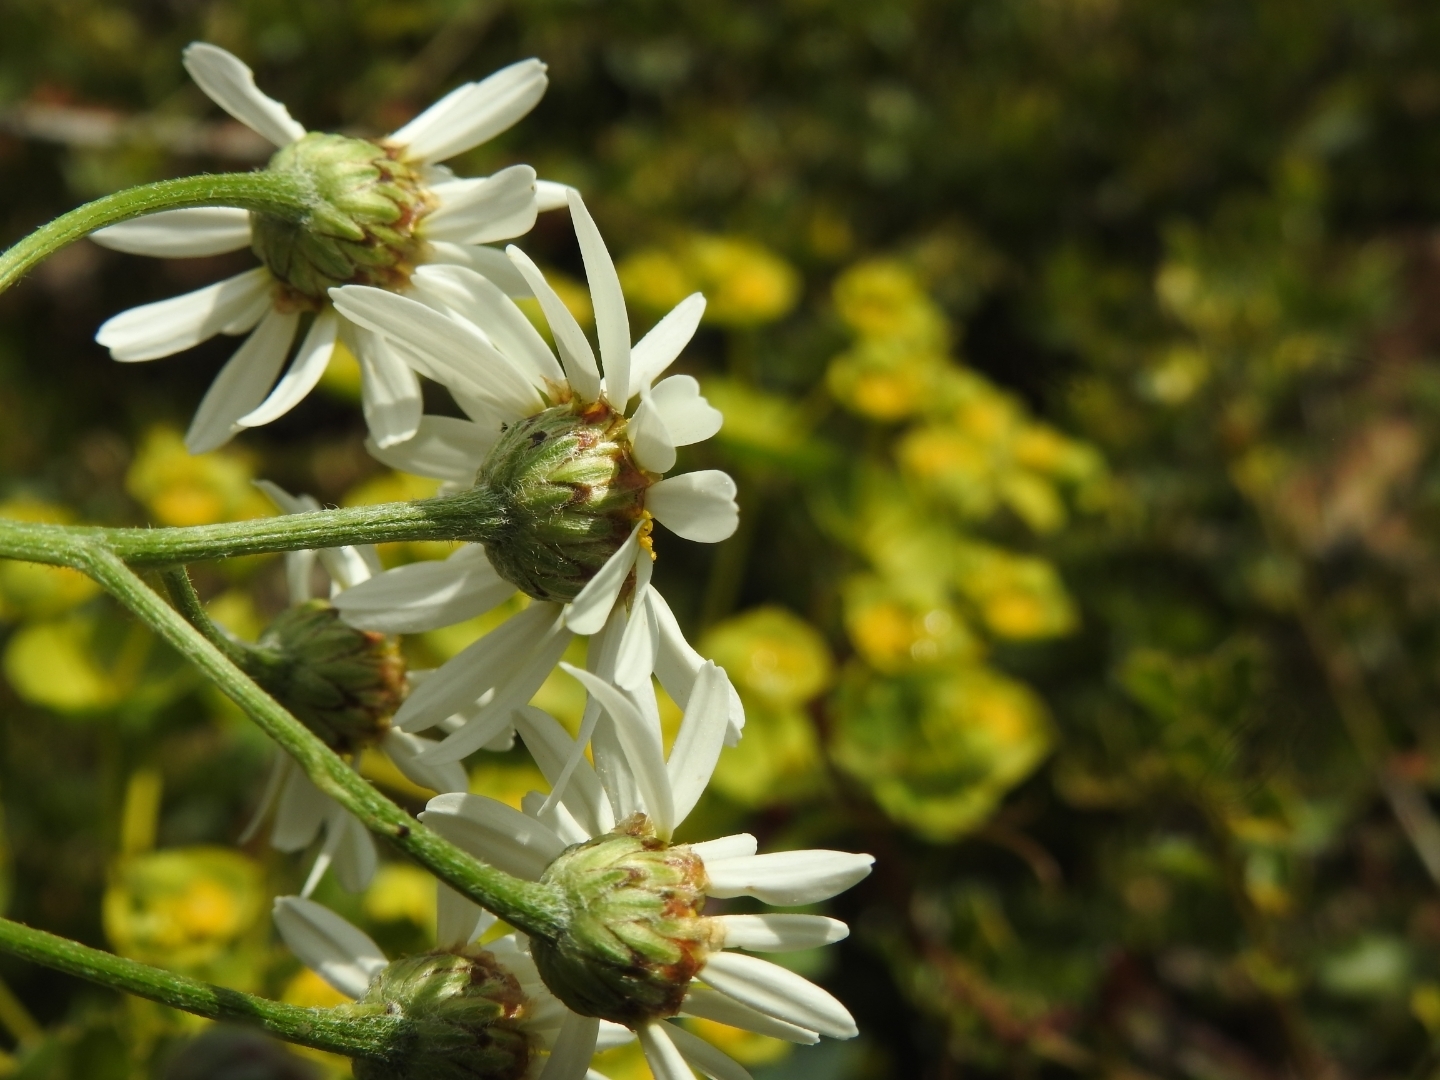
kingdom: Plantae
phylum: Tracheophyta
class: Magnoliopsida
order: Asterales
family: Asteraceae
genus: Tanacetum
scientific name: Tanacetum corymbosum
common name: Scentless feverfew
